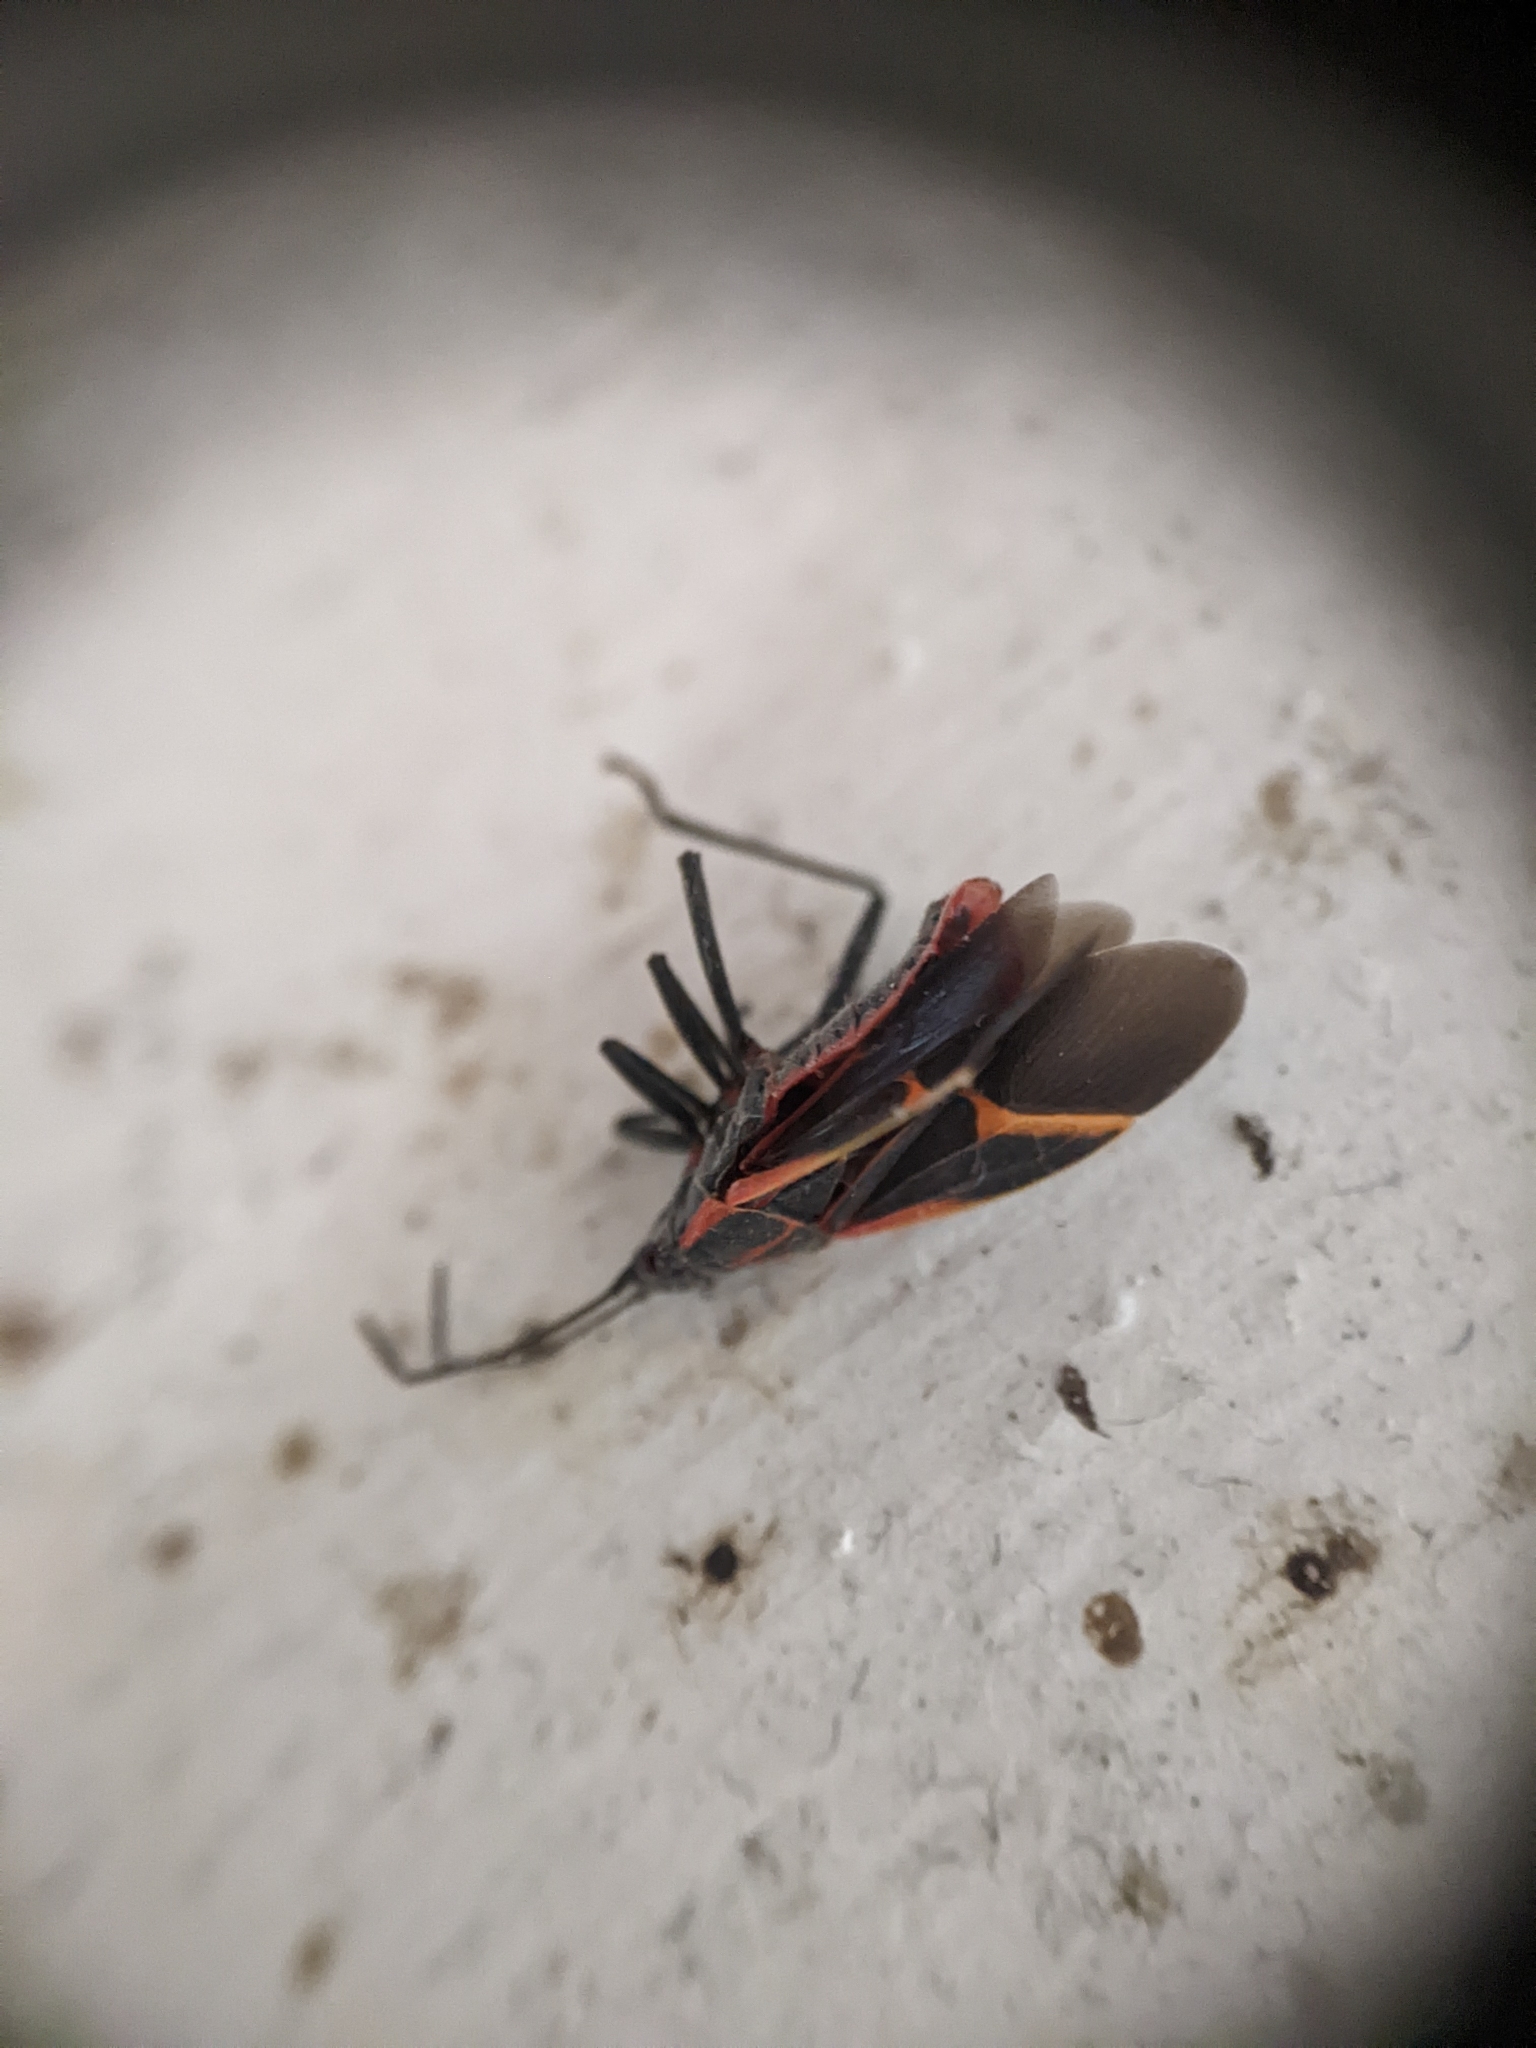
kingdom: Animalia
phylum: Arthropoda
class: Insecta
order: Hemiptera
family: Rhopalidae
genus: Boisea
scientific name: Boisea trivittata
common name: Boxelder bug
